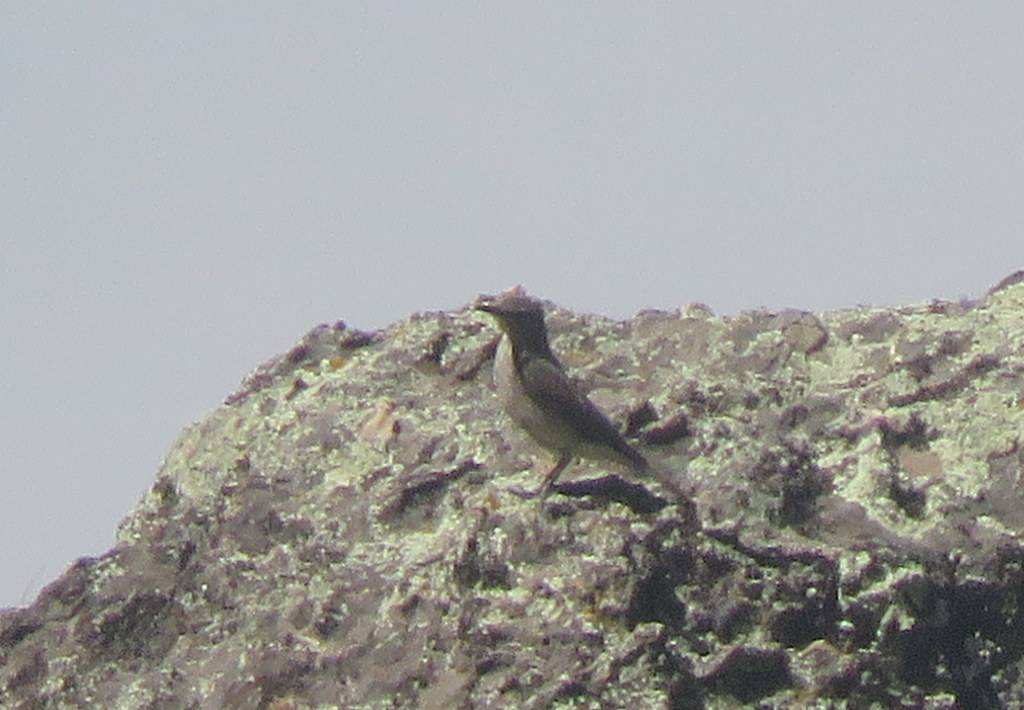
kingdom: Animalia
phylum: Chordata
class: Aves
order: Passeriformes
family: Tyrannidae
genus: Agriornis
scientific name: Agriornis montanus
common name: Black-billed shrike-tyrant
